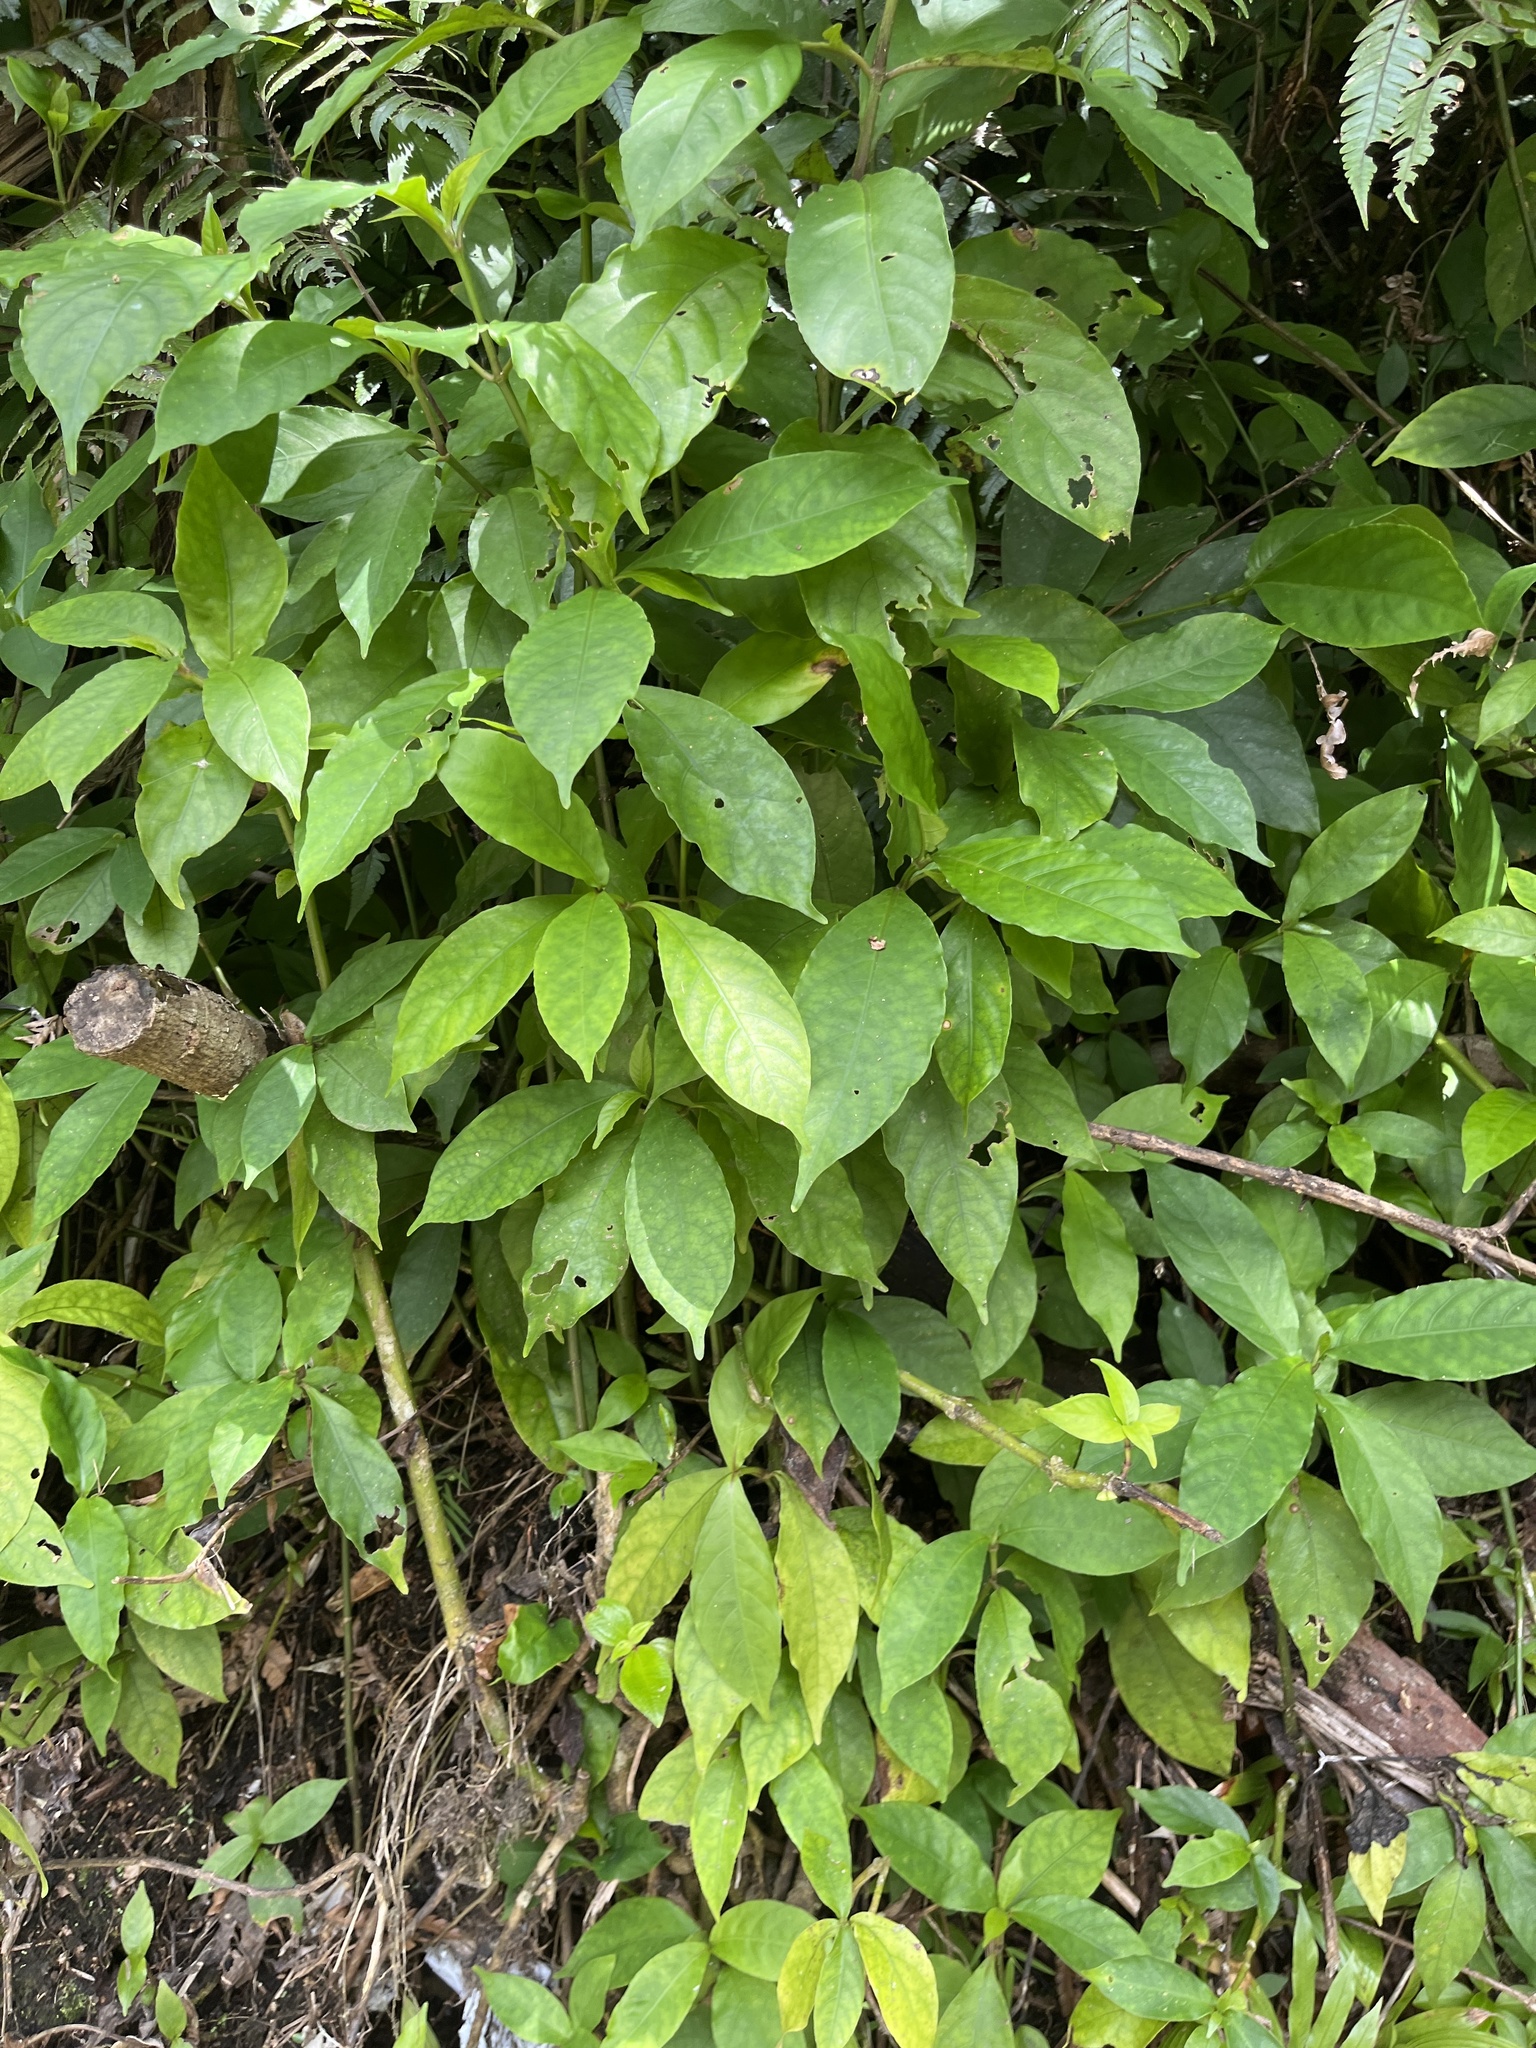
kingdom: Plantae
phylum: Tracheophyta
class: Magnoliopsida
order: Lamiales
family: Acanthaceae
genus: Odontonema
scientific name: Odontonema cuspidatum
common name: Mottled toothedthread
